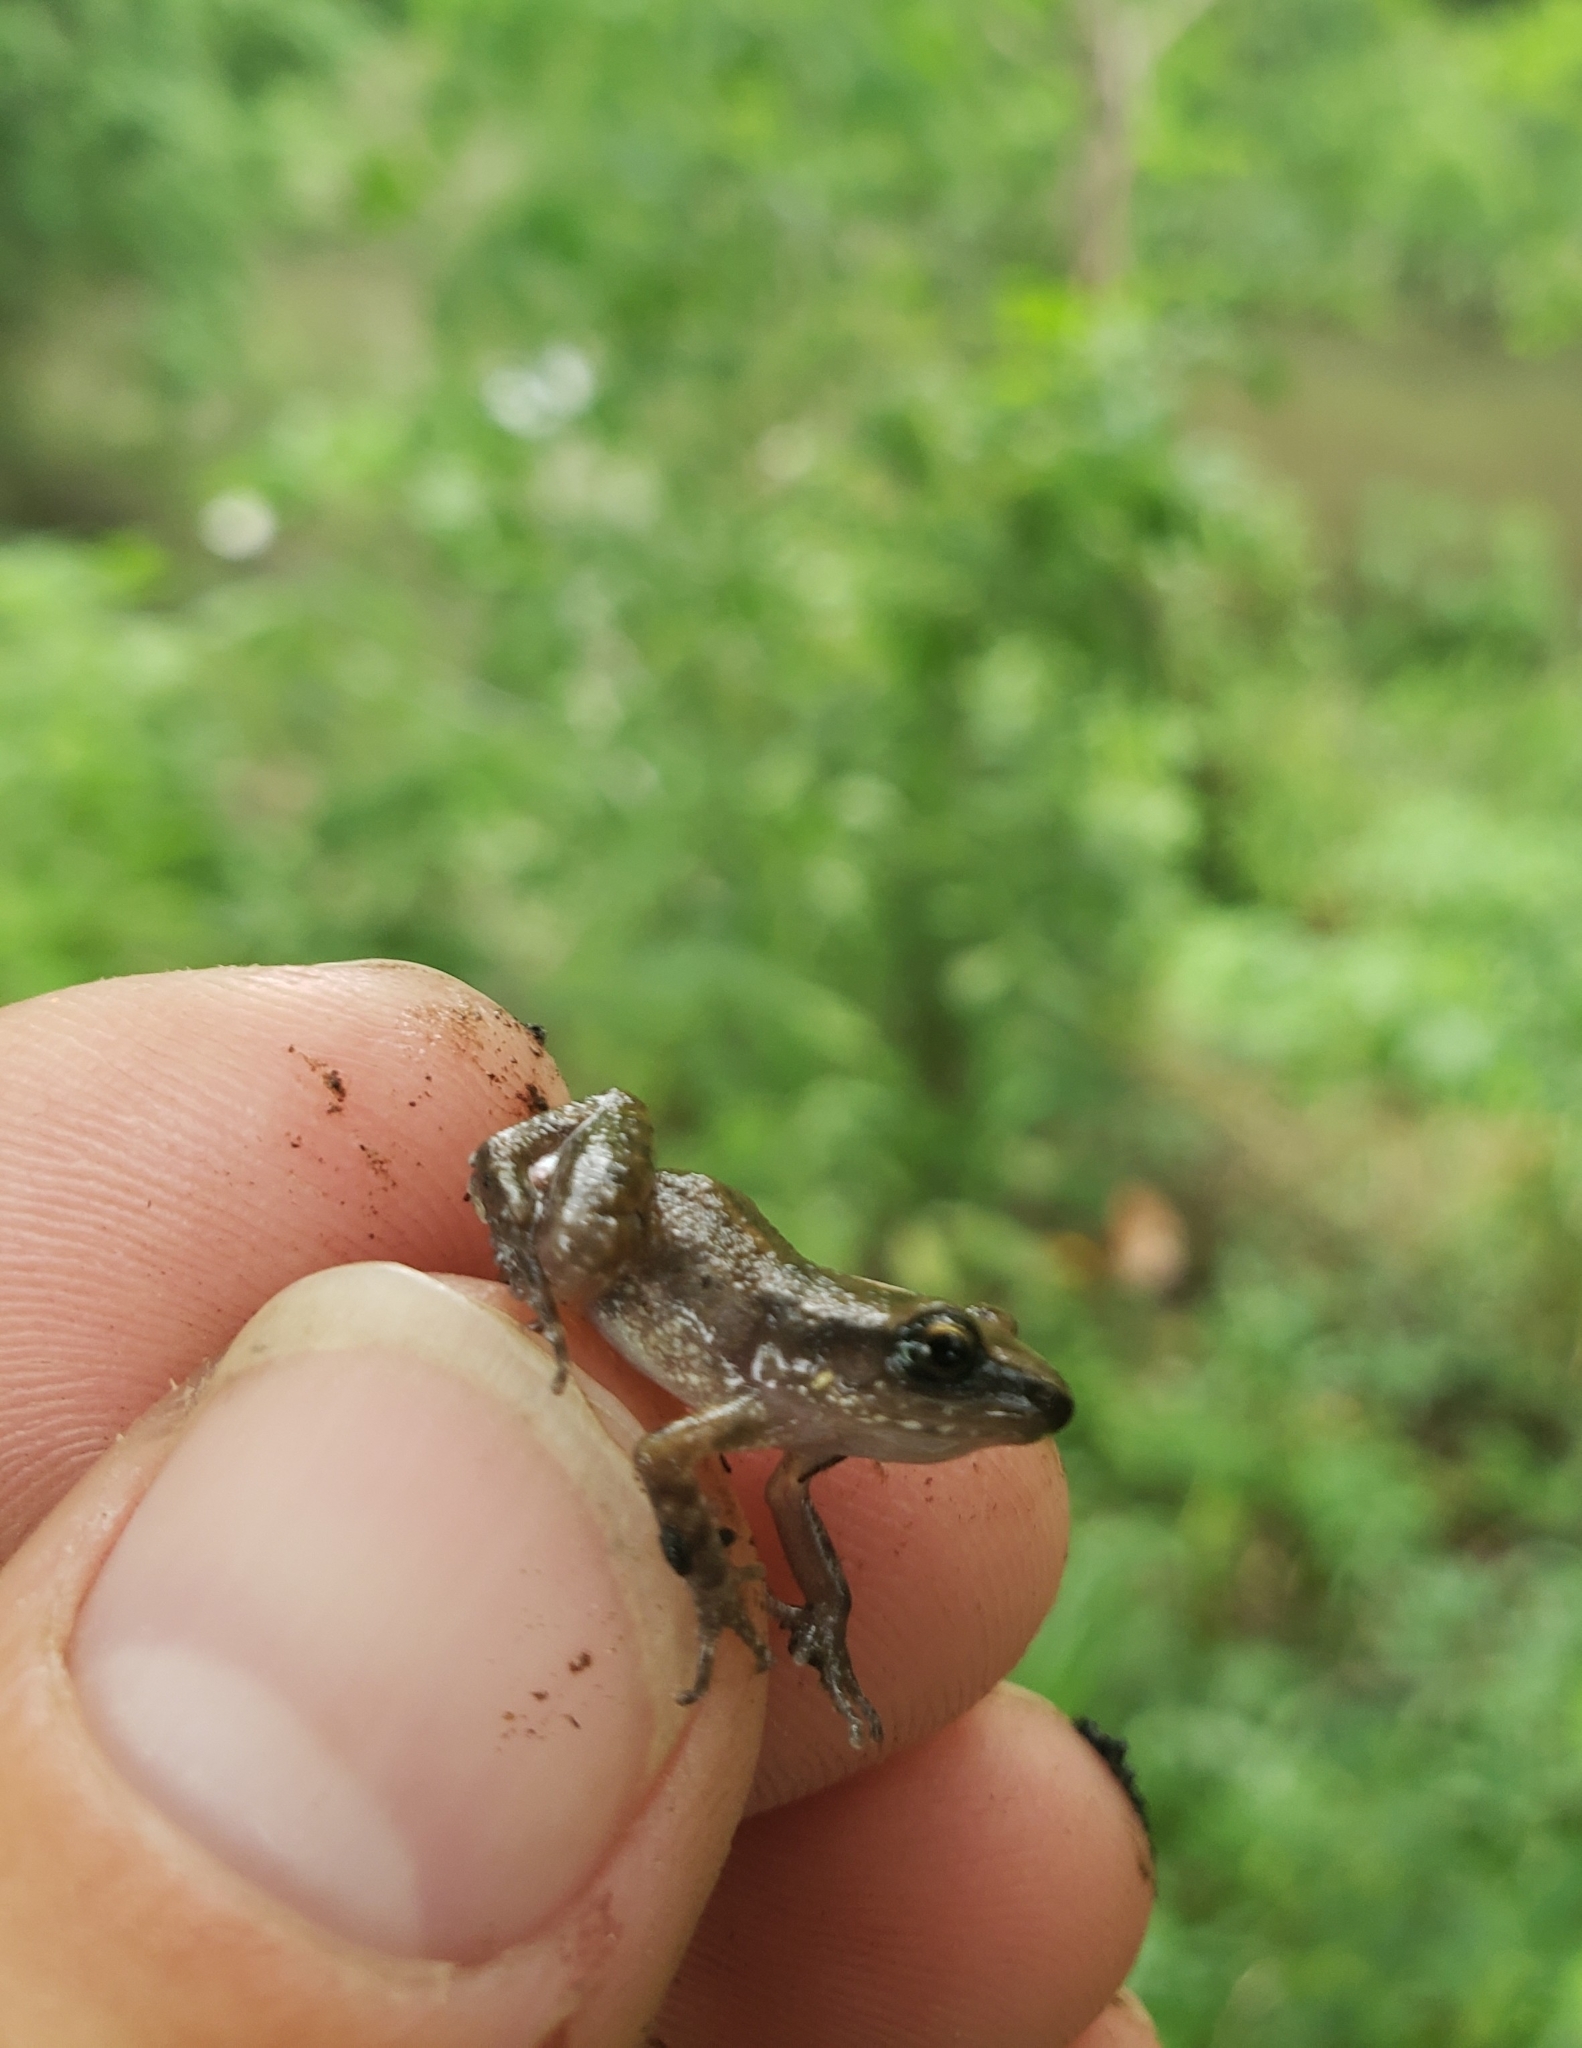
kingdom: Animalia
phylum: Chordata
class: Amphibia
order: Anura
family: Eleutherodactylidae
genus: Eleutherodactylus
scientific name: Eleutherodactylus campi
